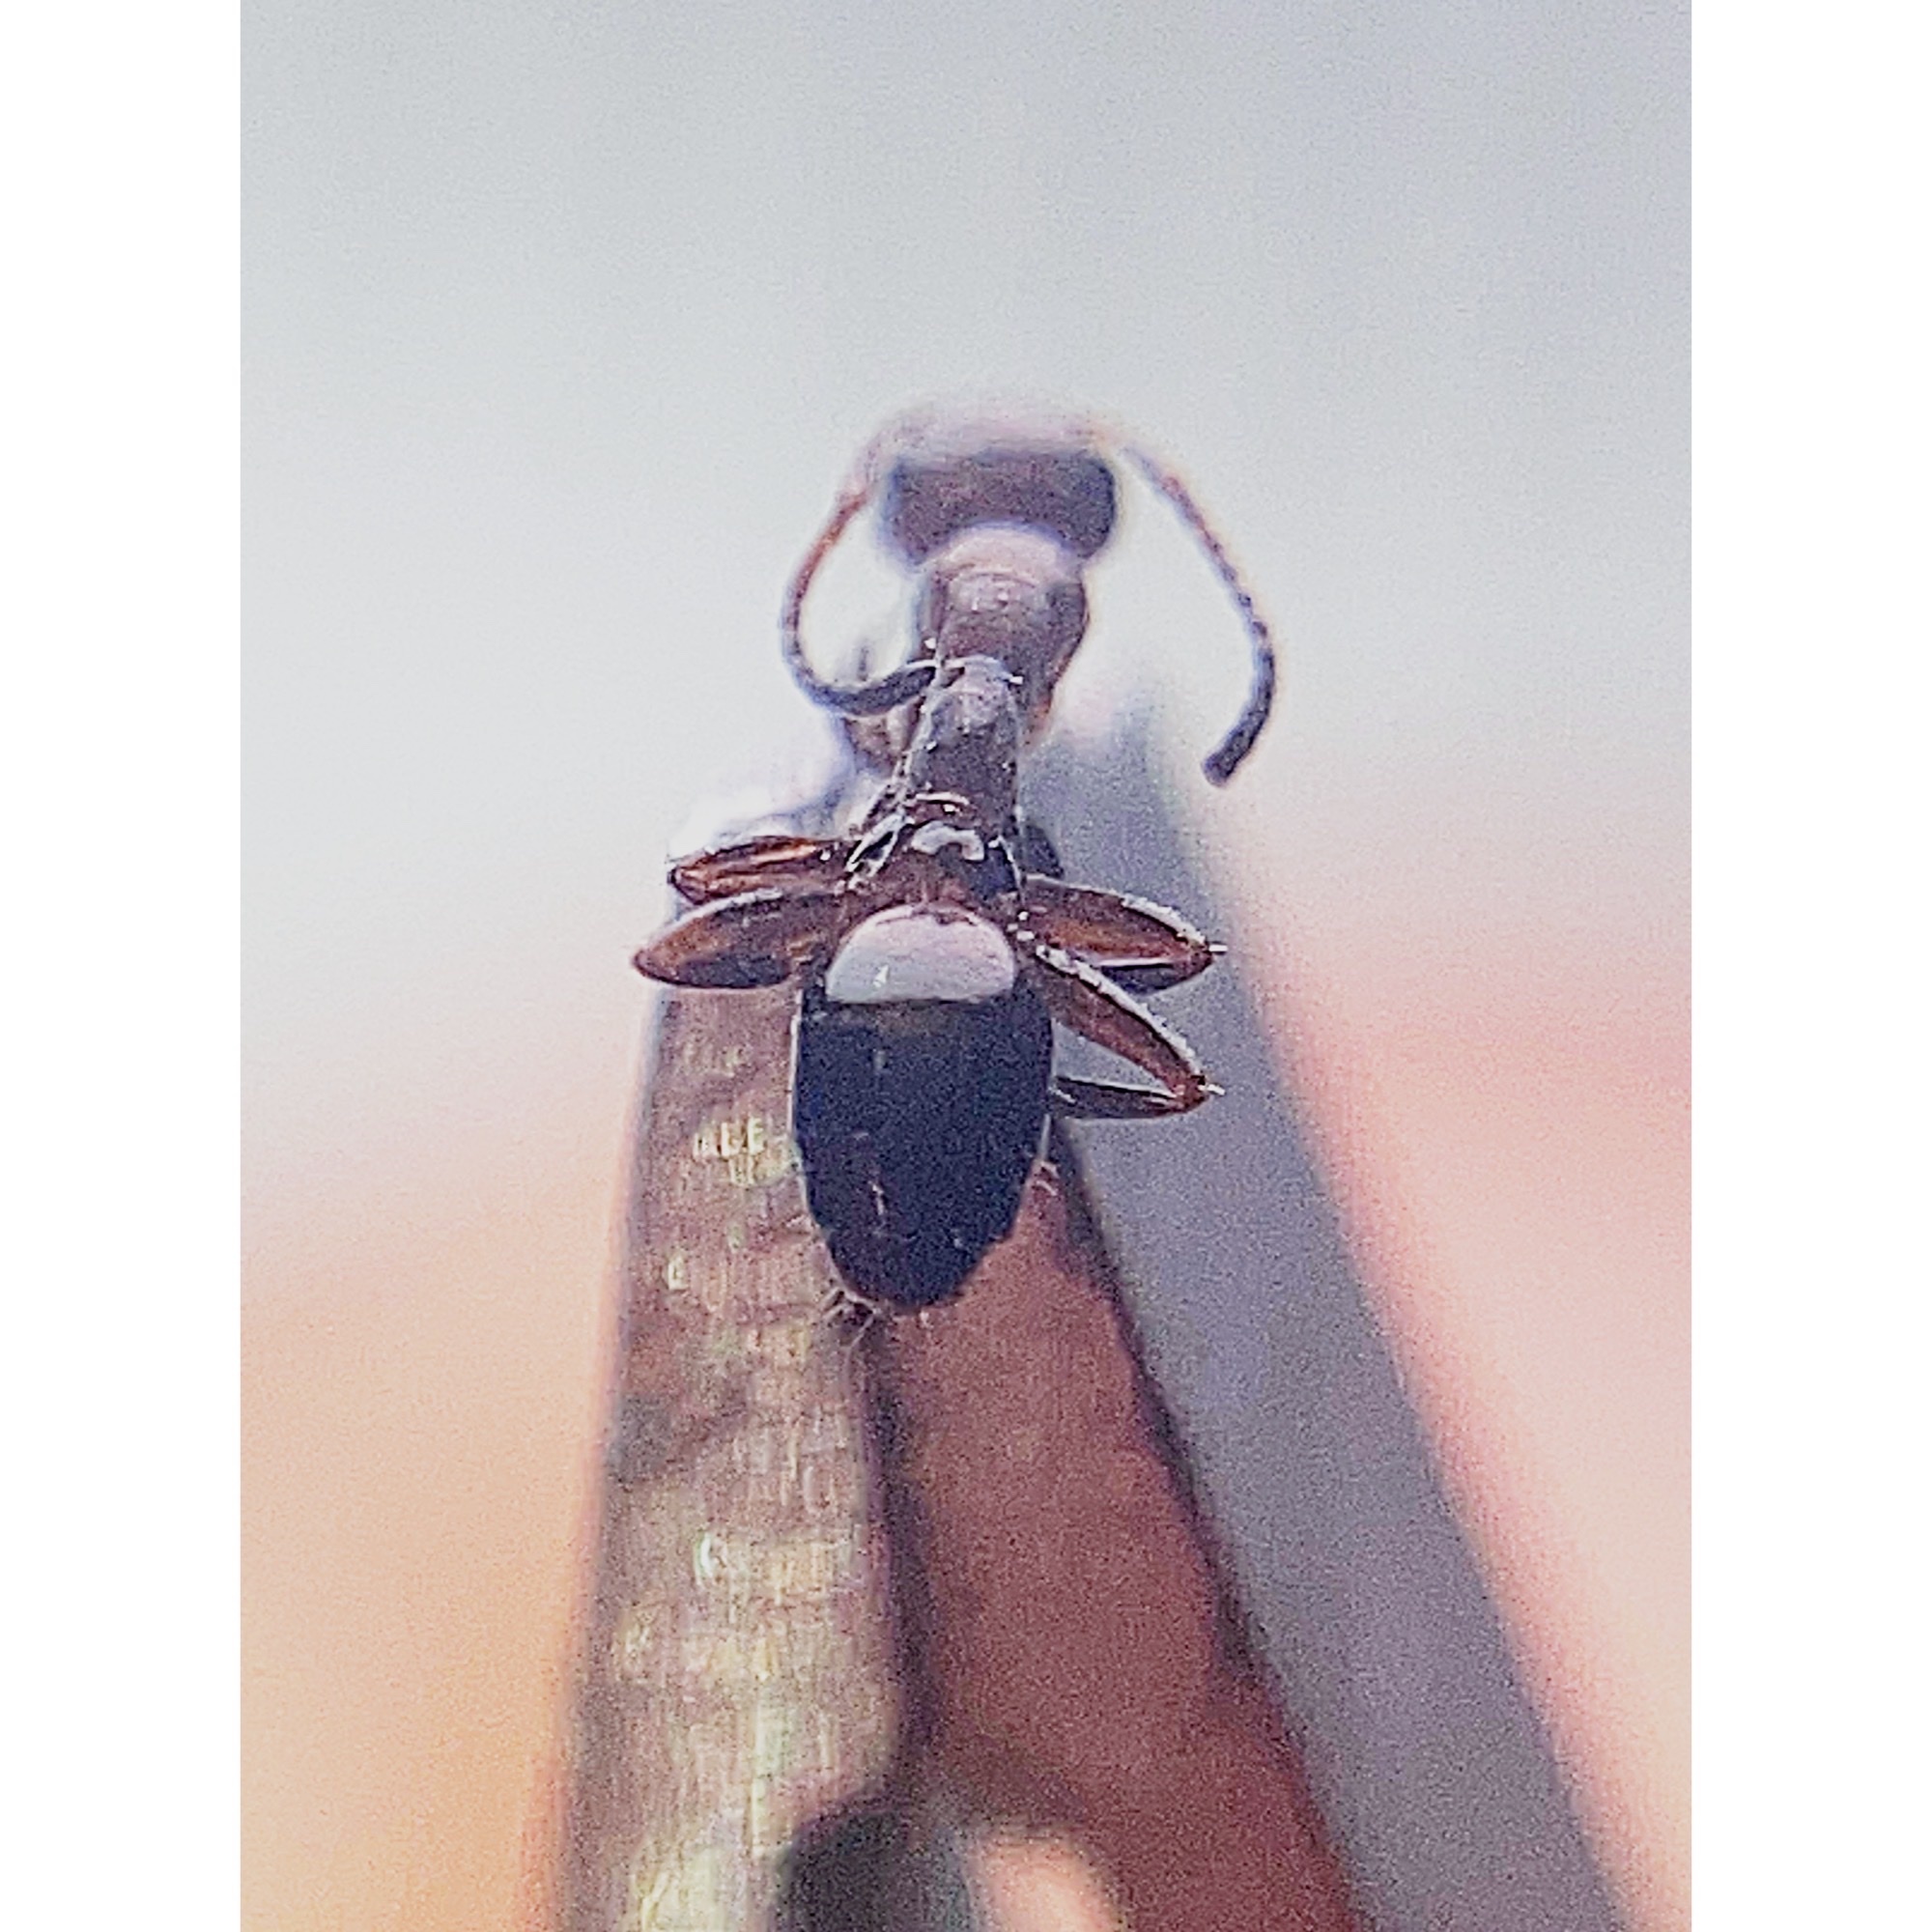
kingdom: Animalia
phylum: Arthropoda
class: Insecta
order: Hymenoptera
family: Formicidae
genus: Colobopsis
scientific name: Colobopsis impressa
